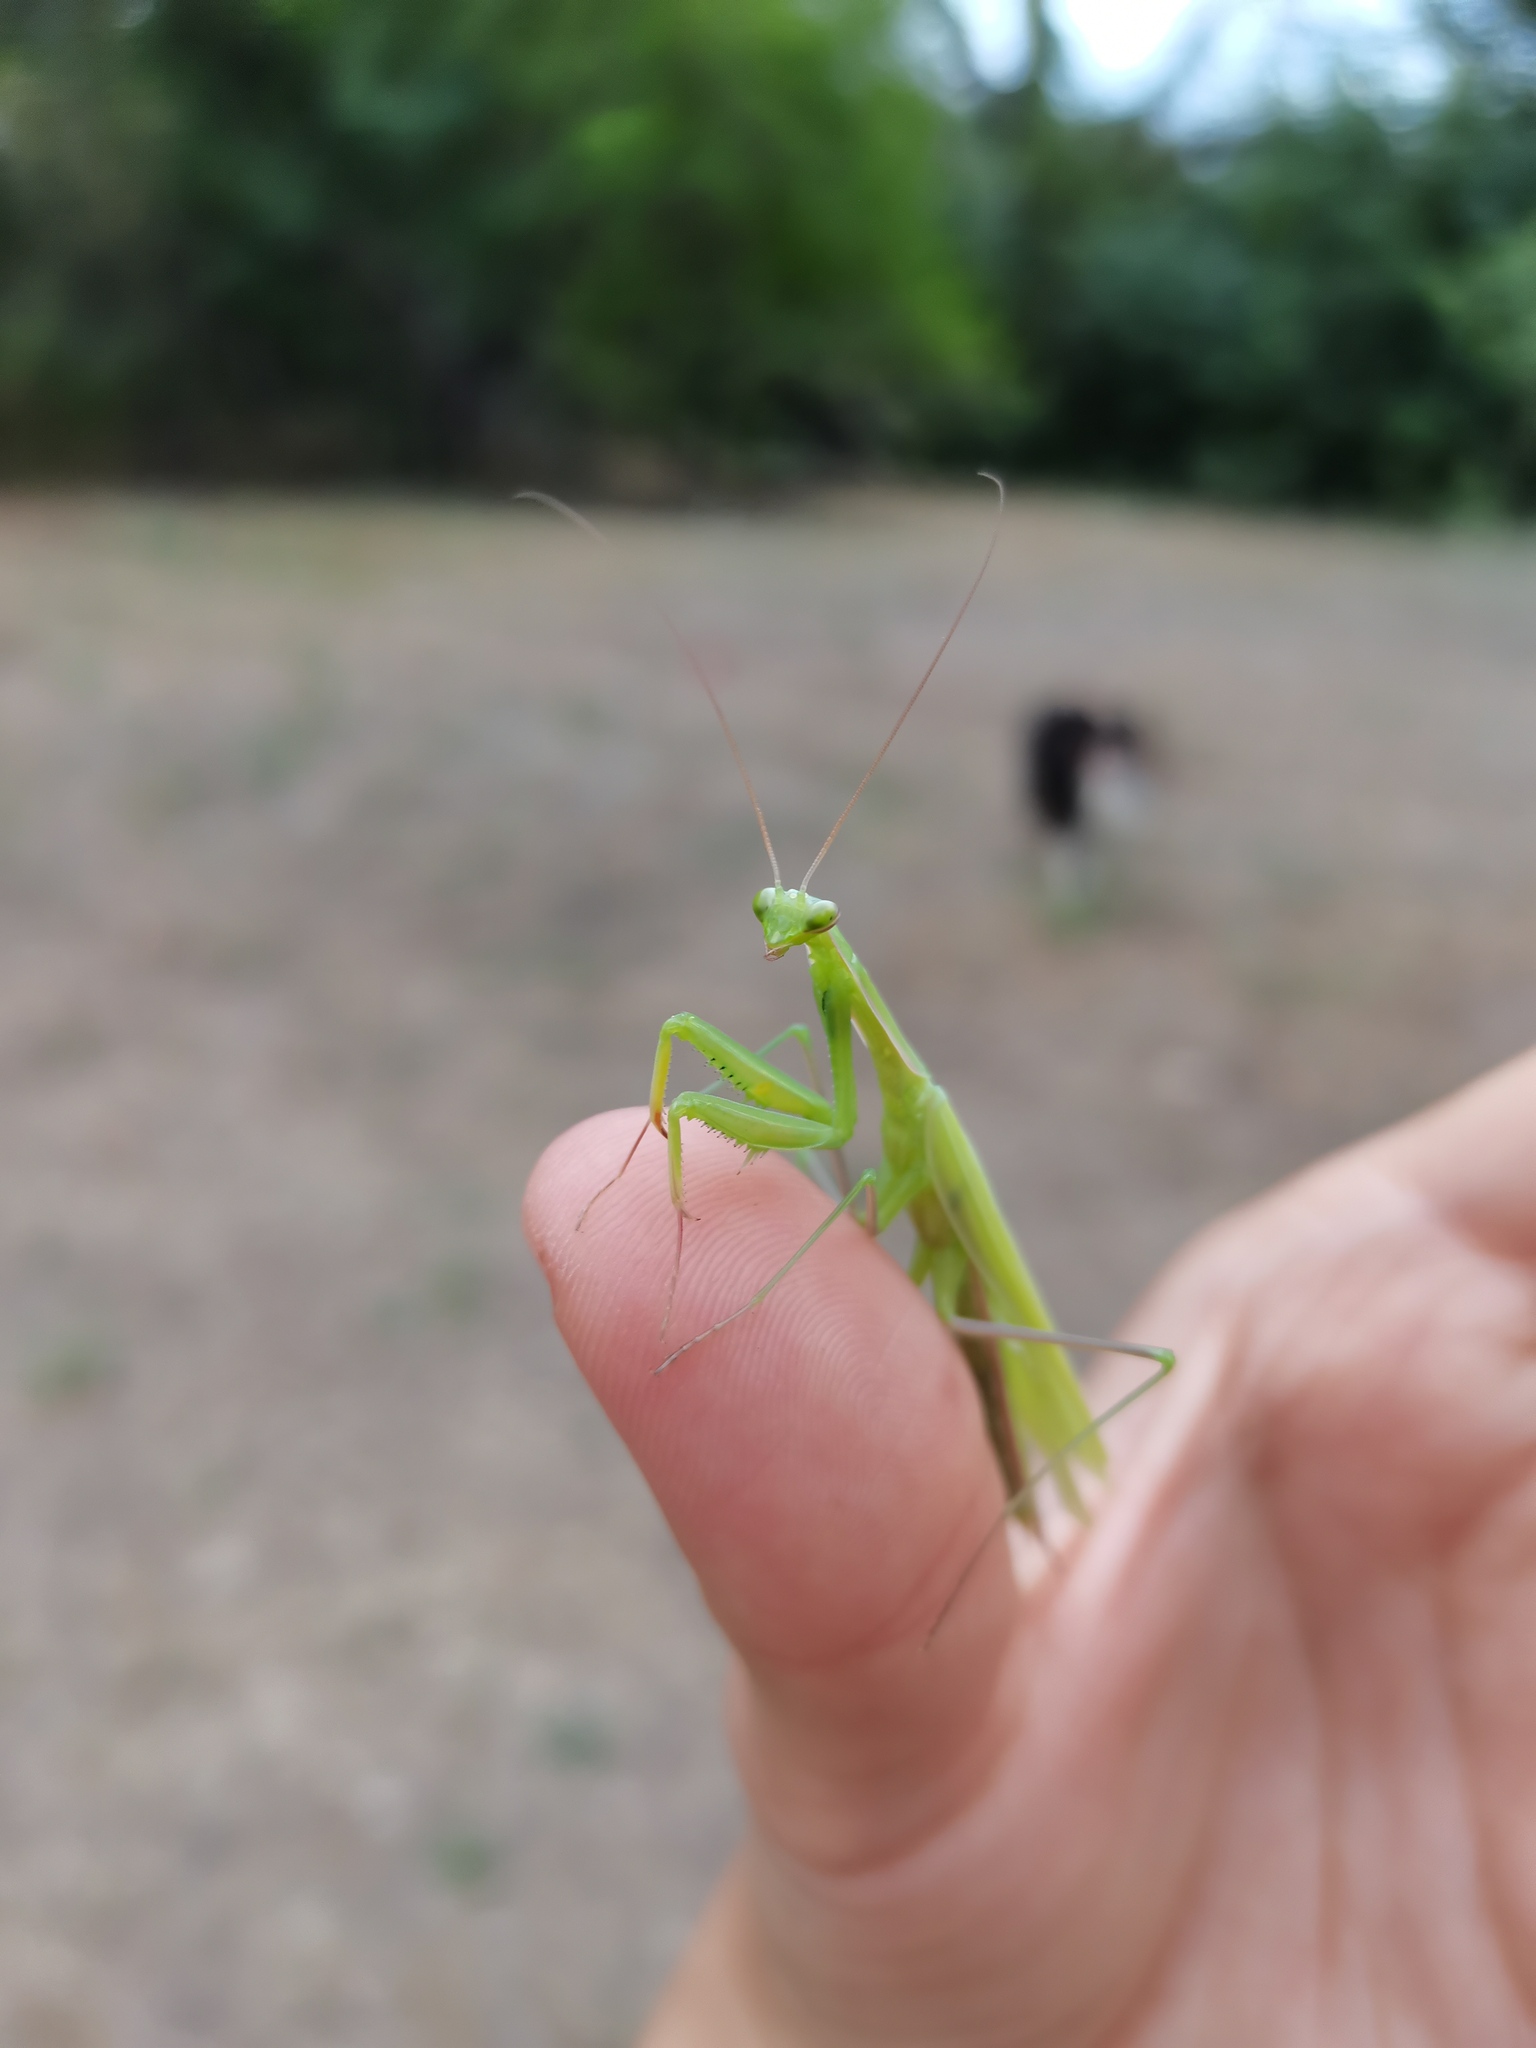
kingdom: Animalia
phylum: Arthropoda
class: Insecta
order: Mantodea
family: Mantidae
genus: Mantis
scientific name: Mantis religiosa
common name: Praying mantis
